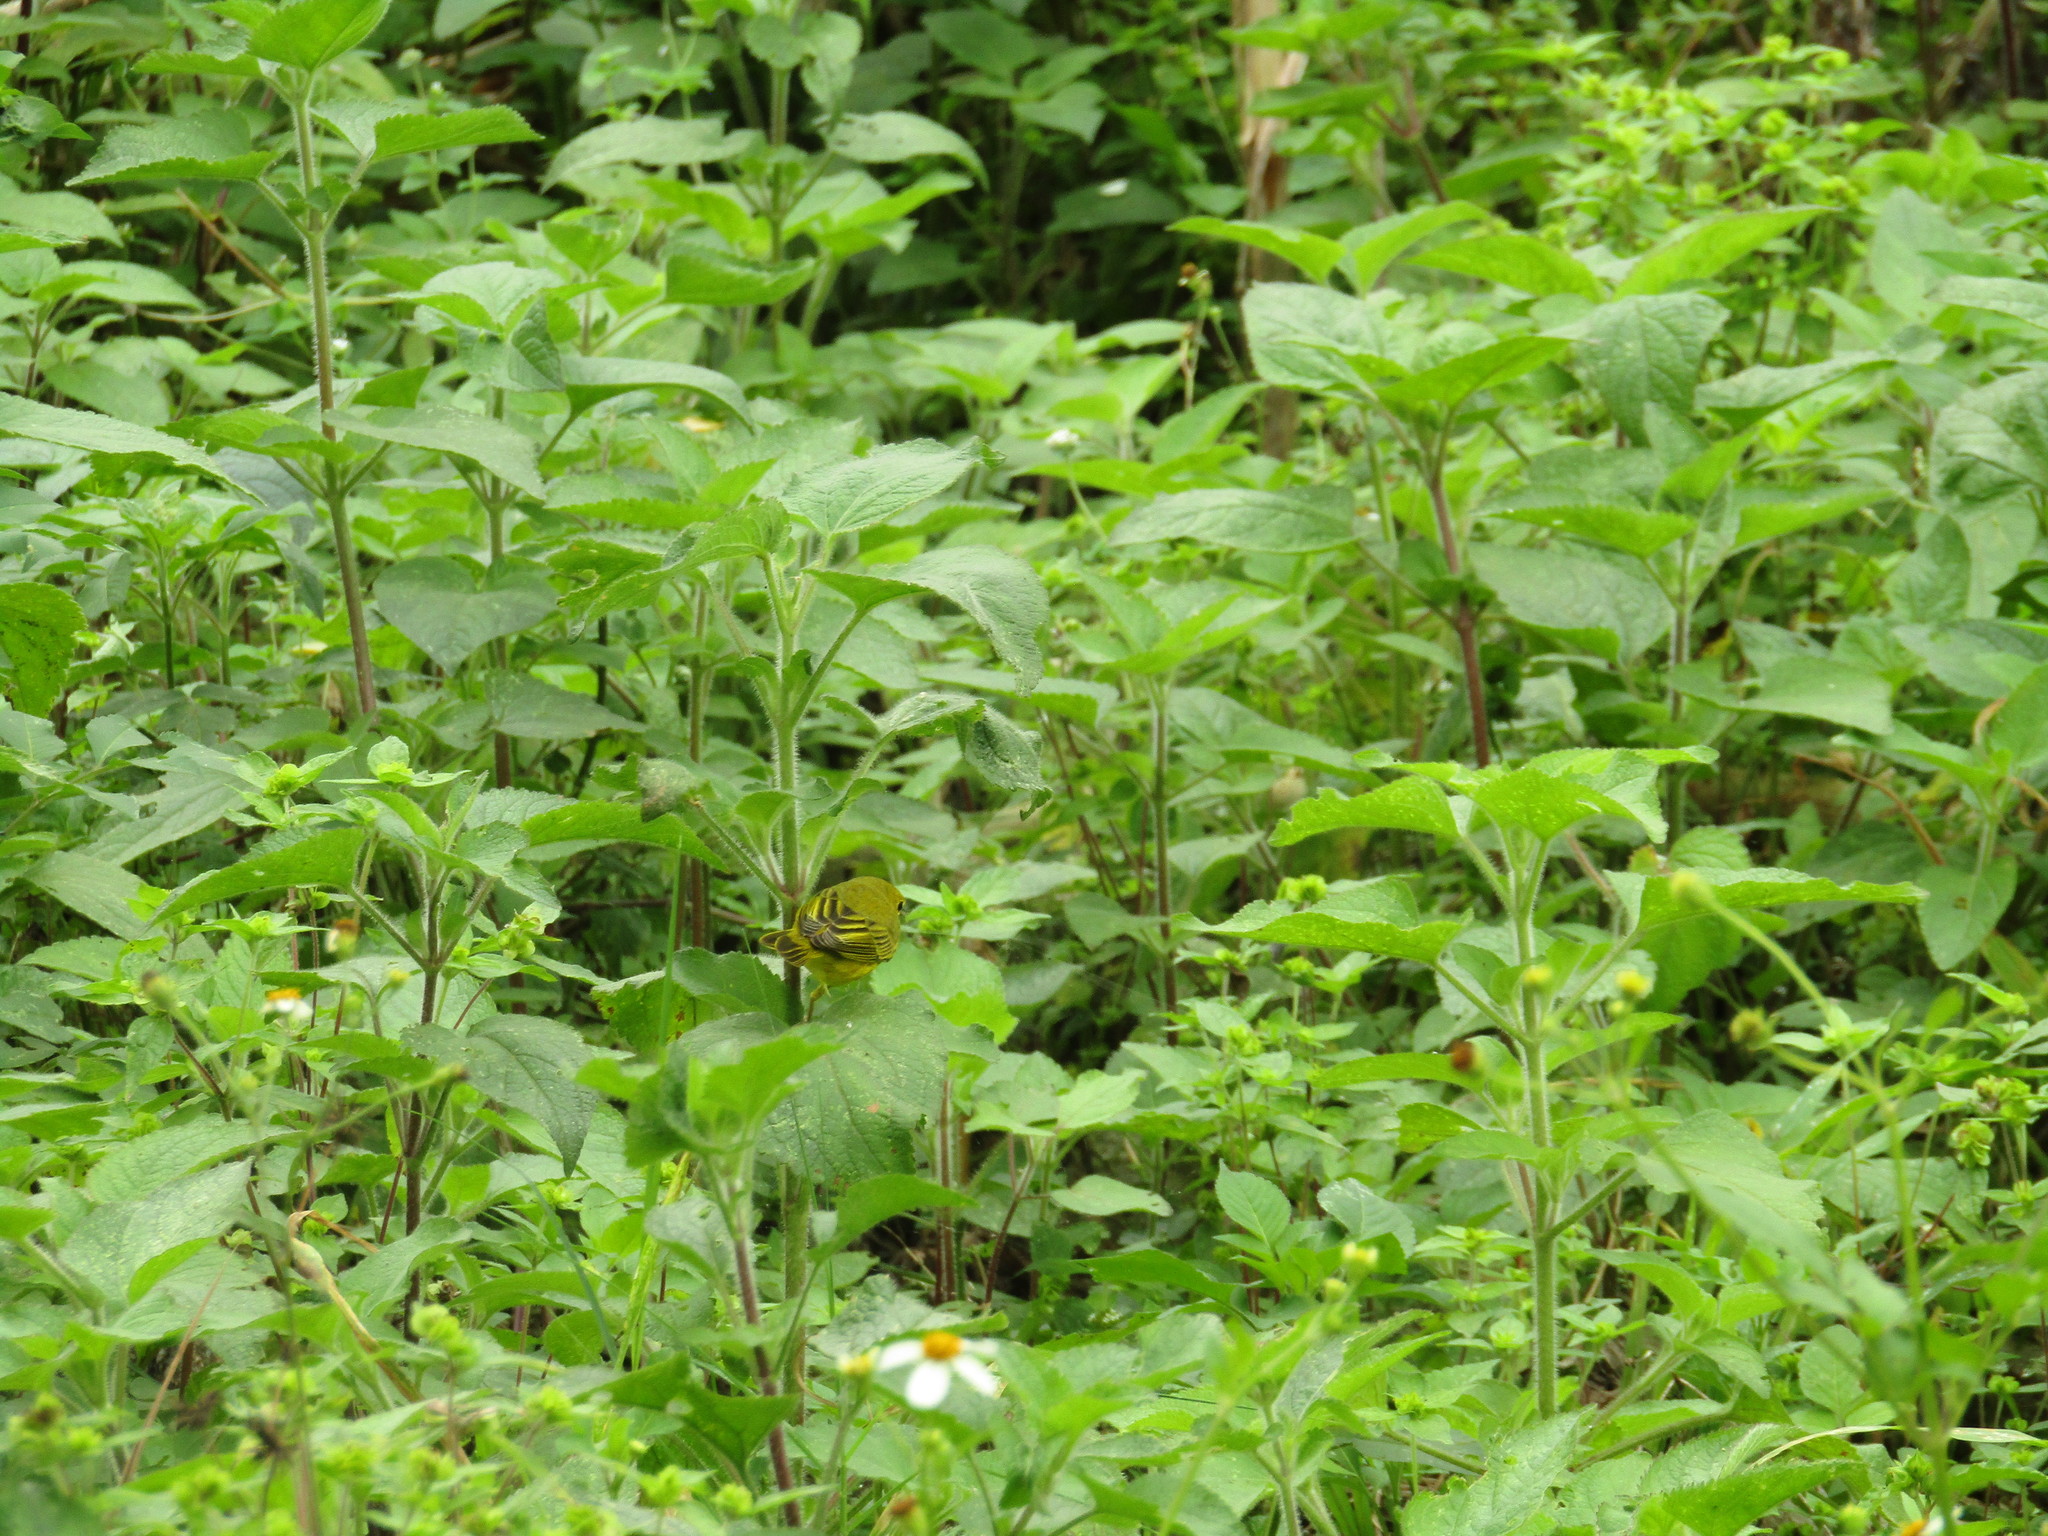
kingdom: Animalia
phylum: Chordata
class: Aves
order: Passeriformes
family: Parulidae
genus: Setophaga
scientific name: Setophaga petechia
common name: Yellow warbler
